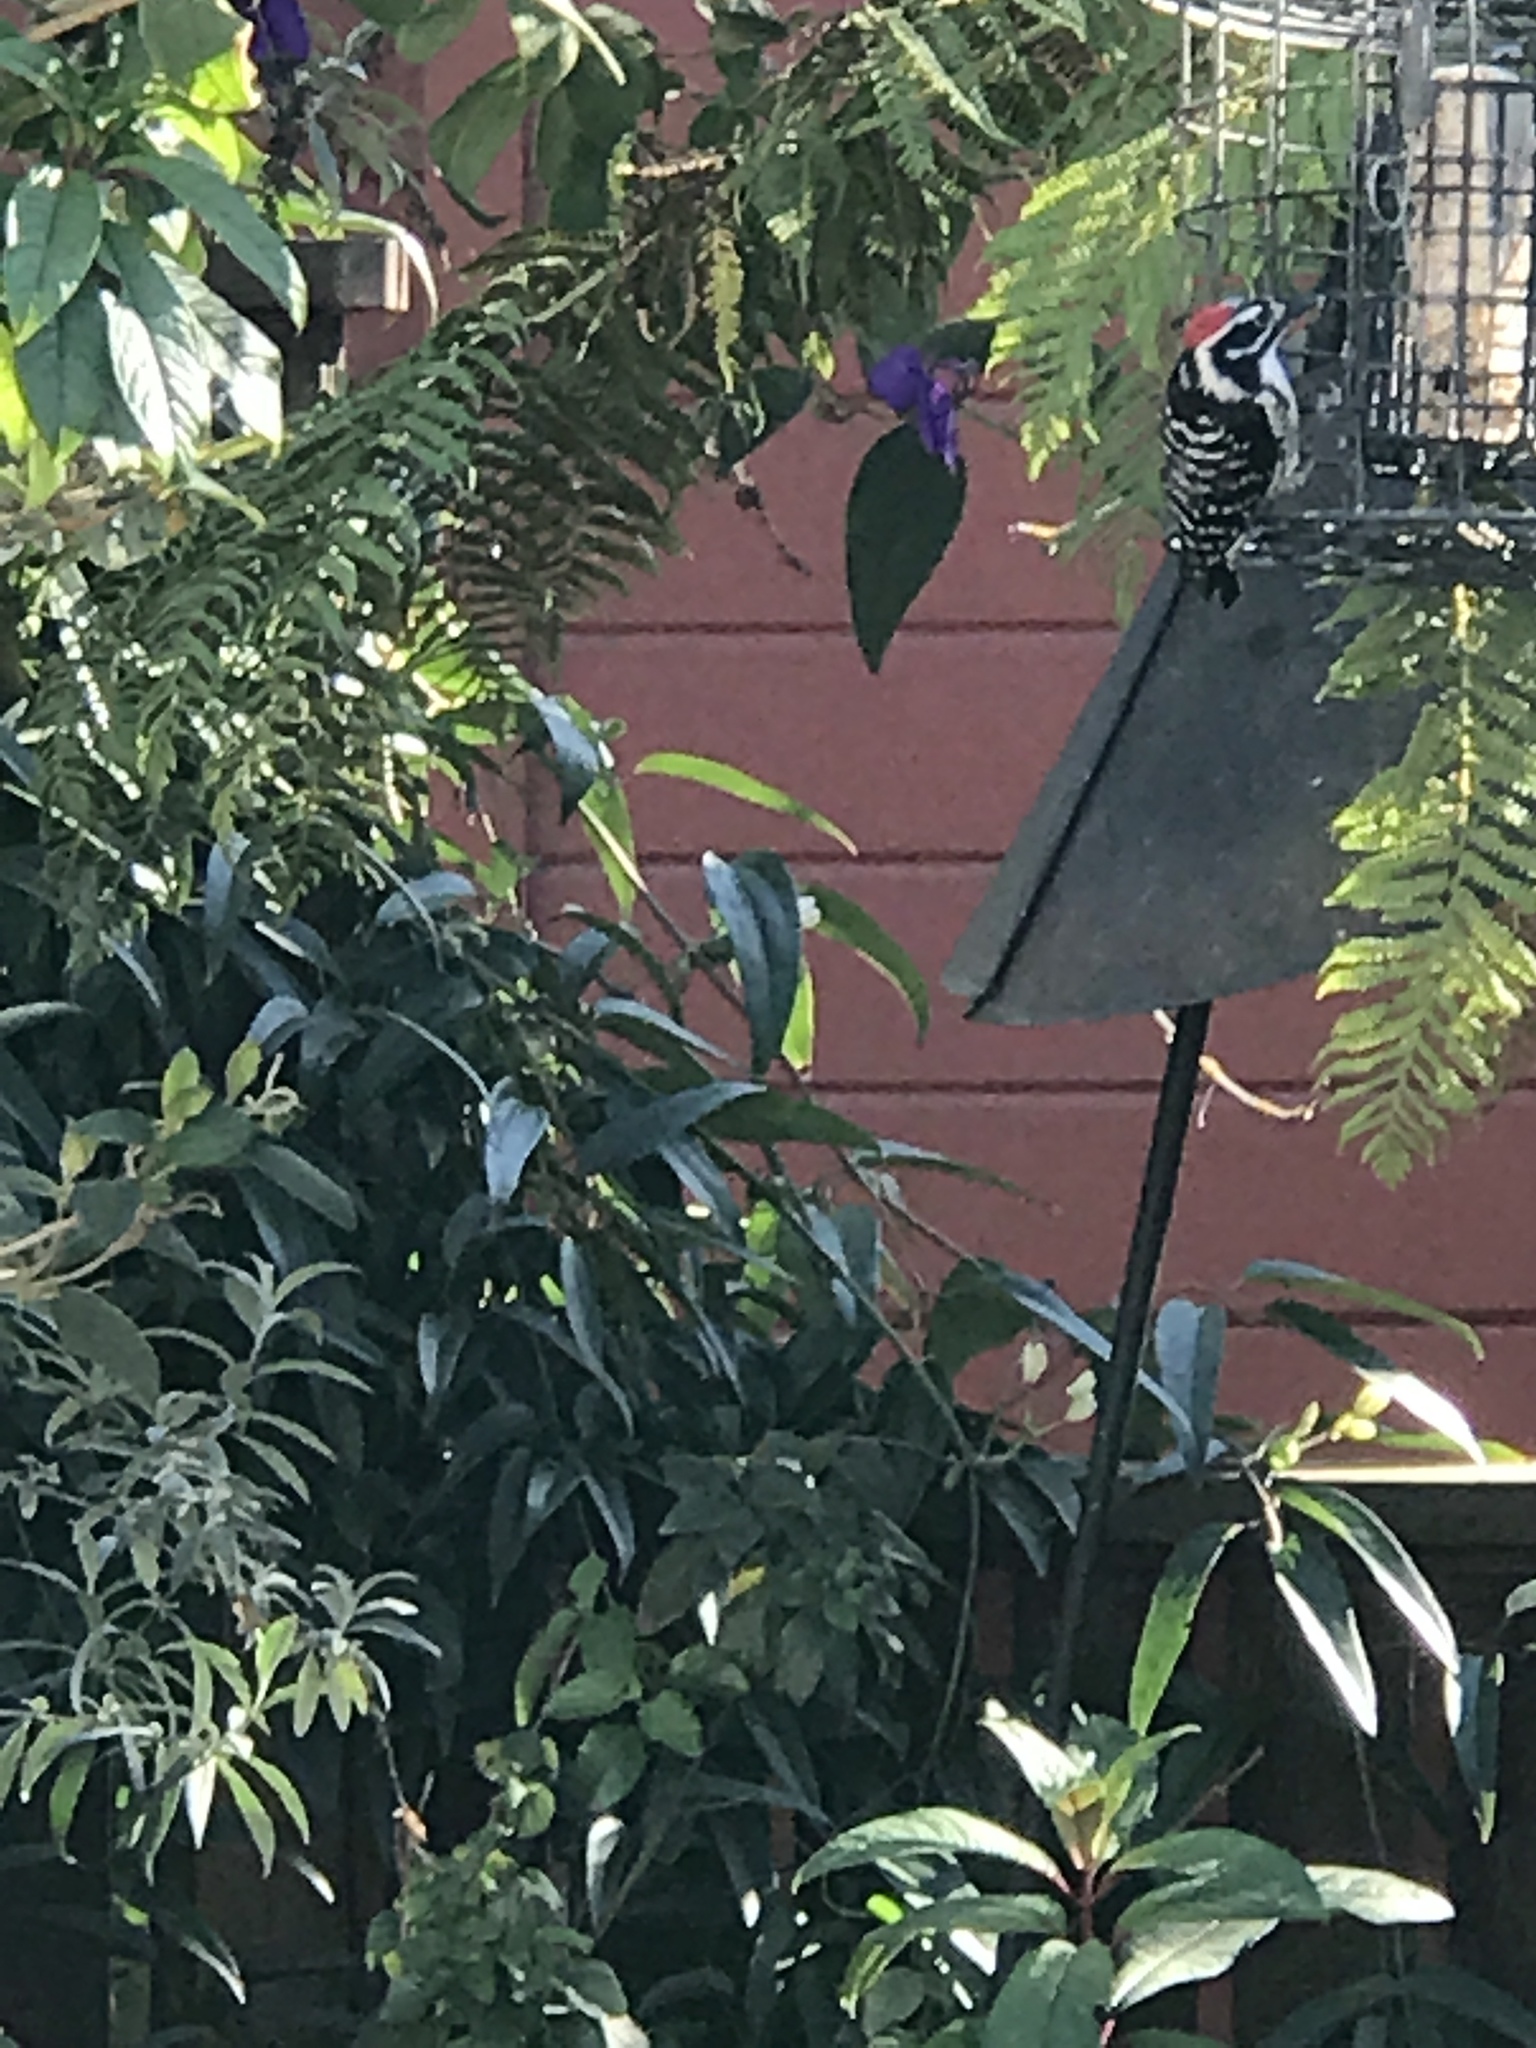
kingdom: Animalia
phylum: Chordata
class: Aves
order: Piciformes
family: Picidae
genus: Dryobates
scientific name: Dryobates nuttallii
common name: Nuttall's woodpecker
